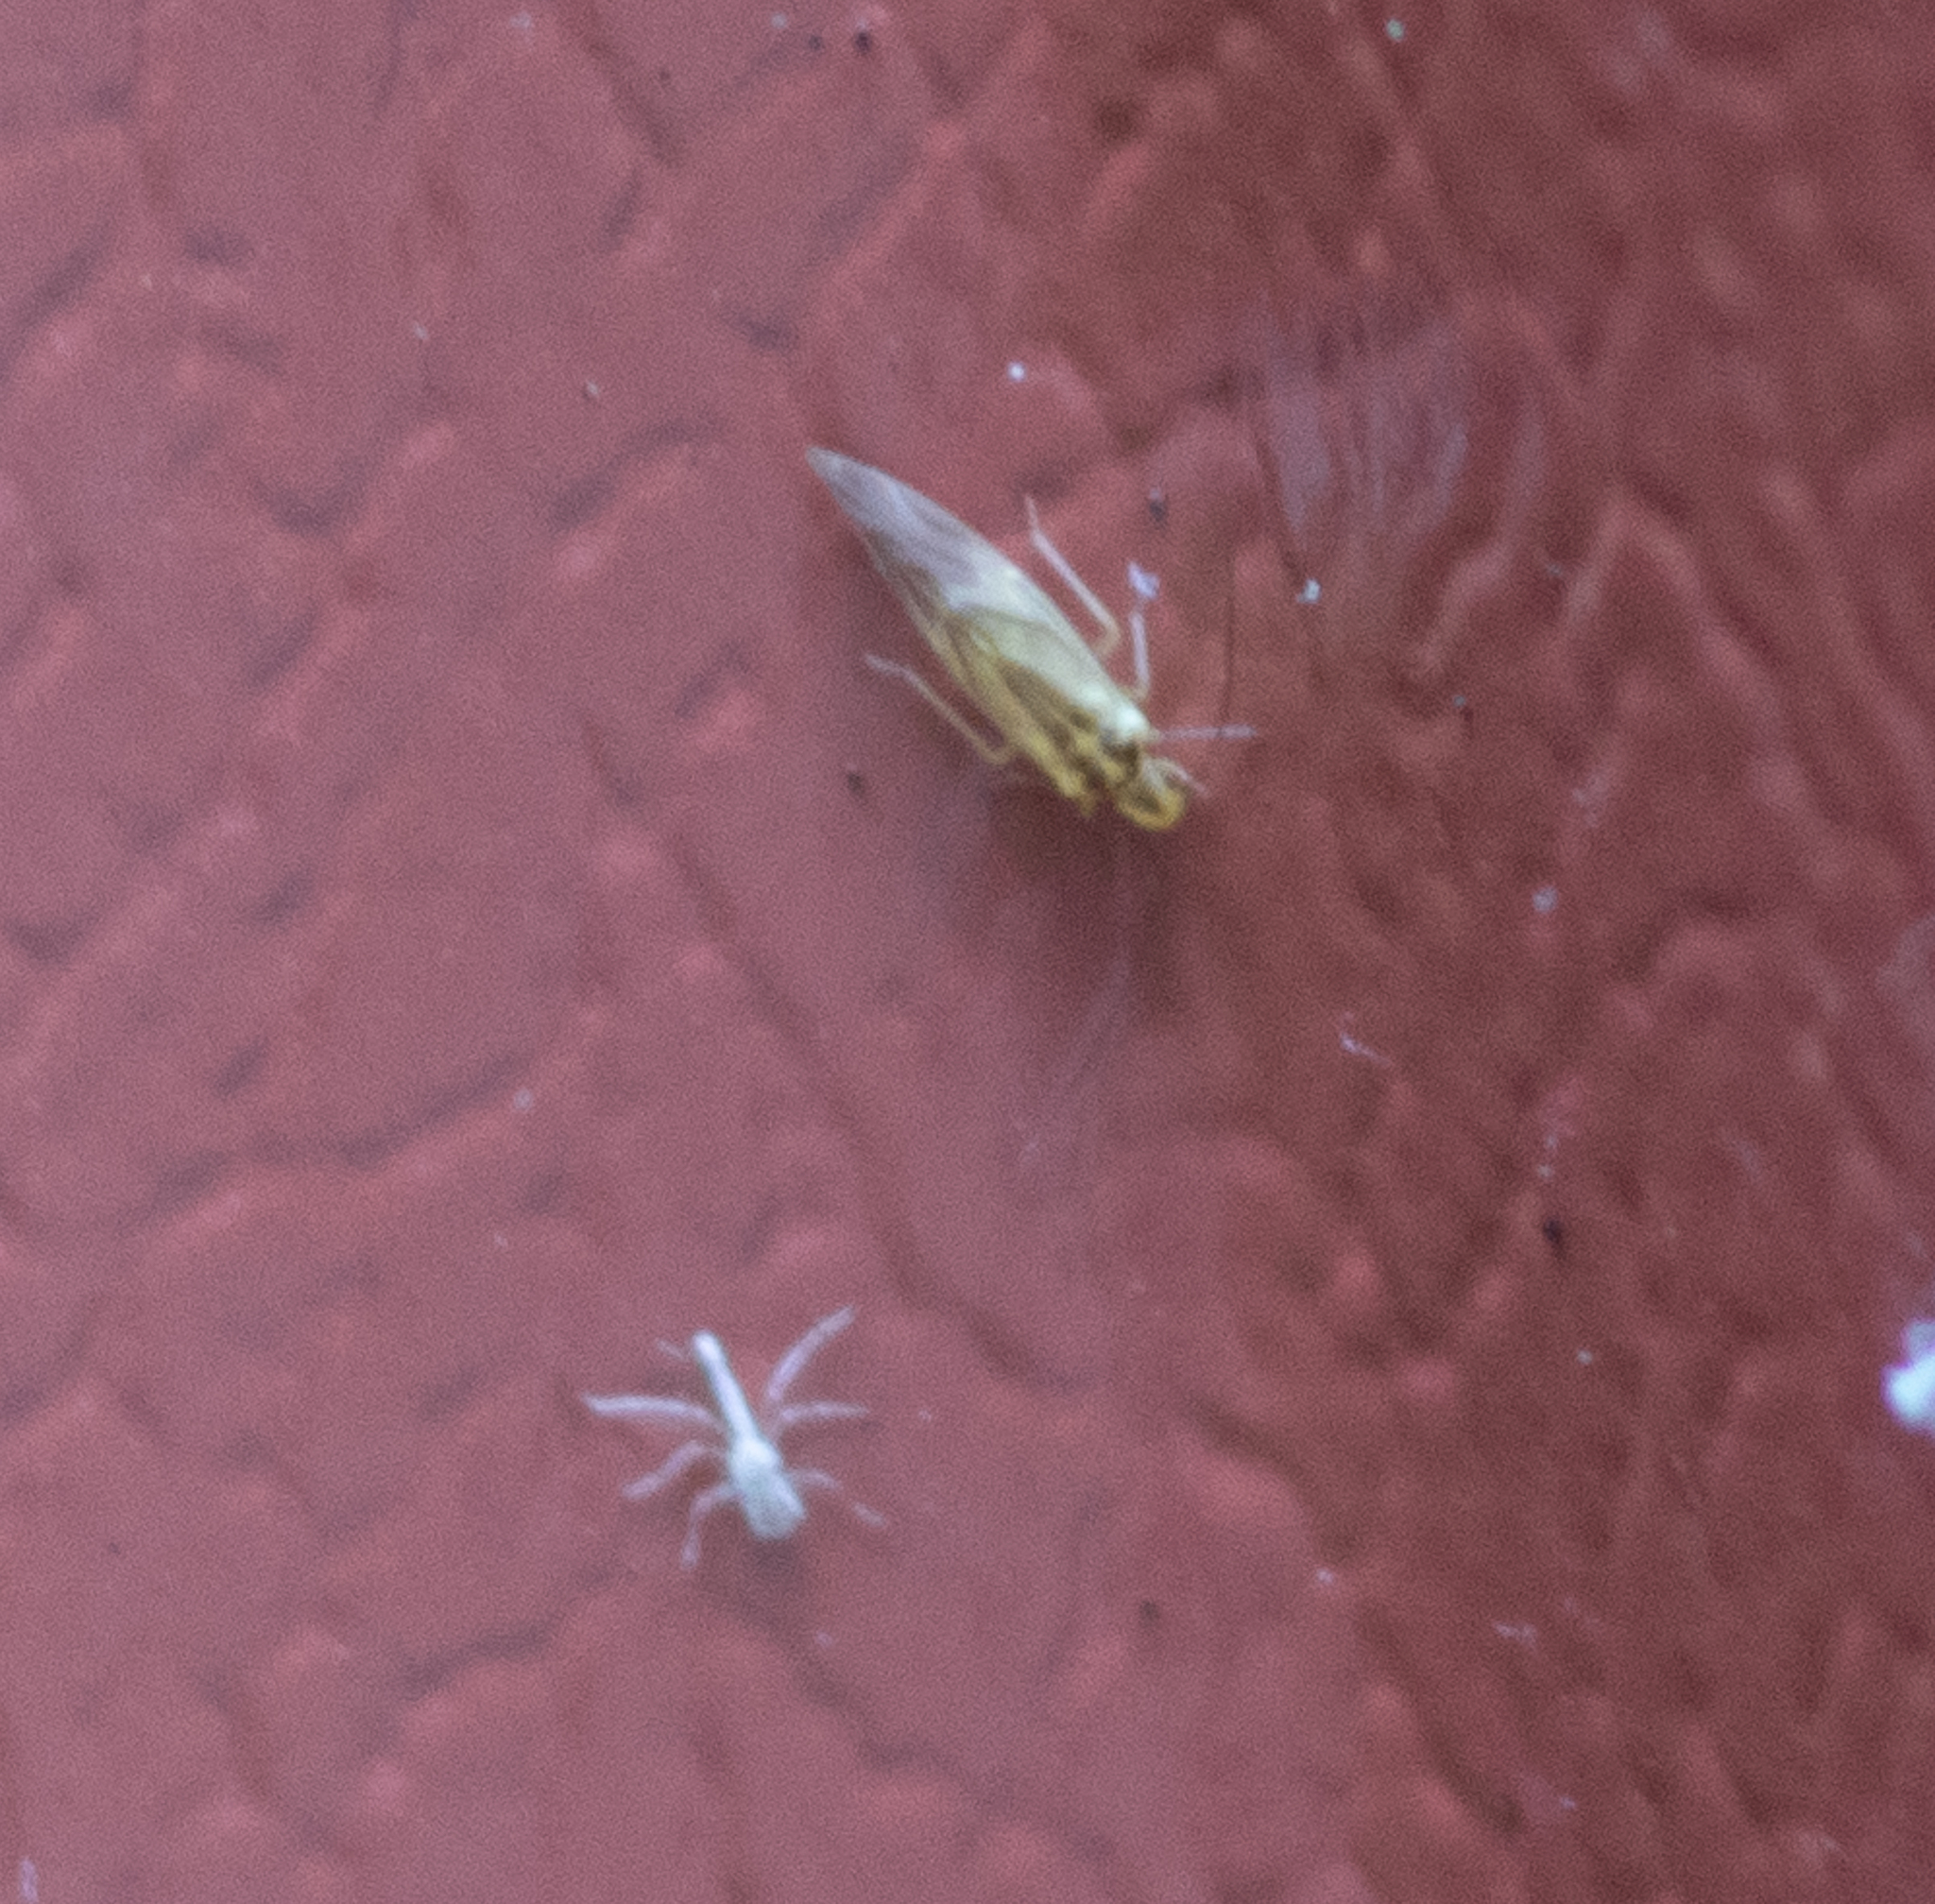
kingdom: Animalia
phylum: Arthropoda
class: Insecta
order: Psocodea
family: Caeciliusidae
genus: Valenzuela
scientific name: Valenzuela flavidus
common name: Yellow barklouse
